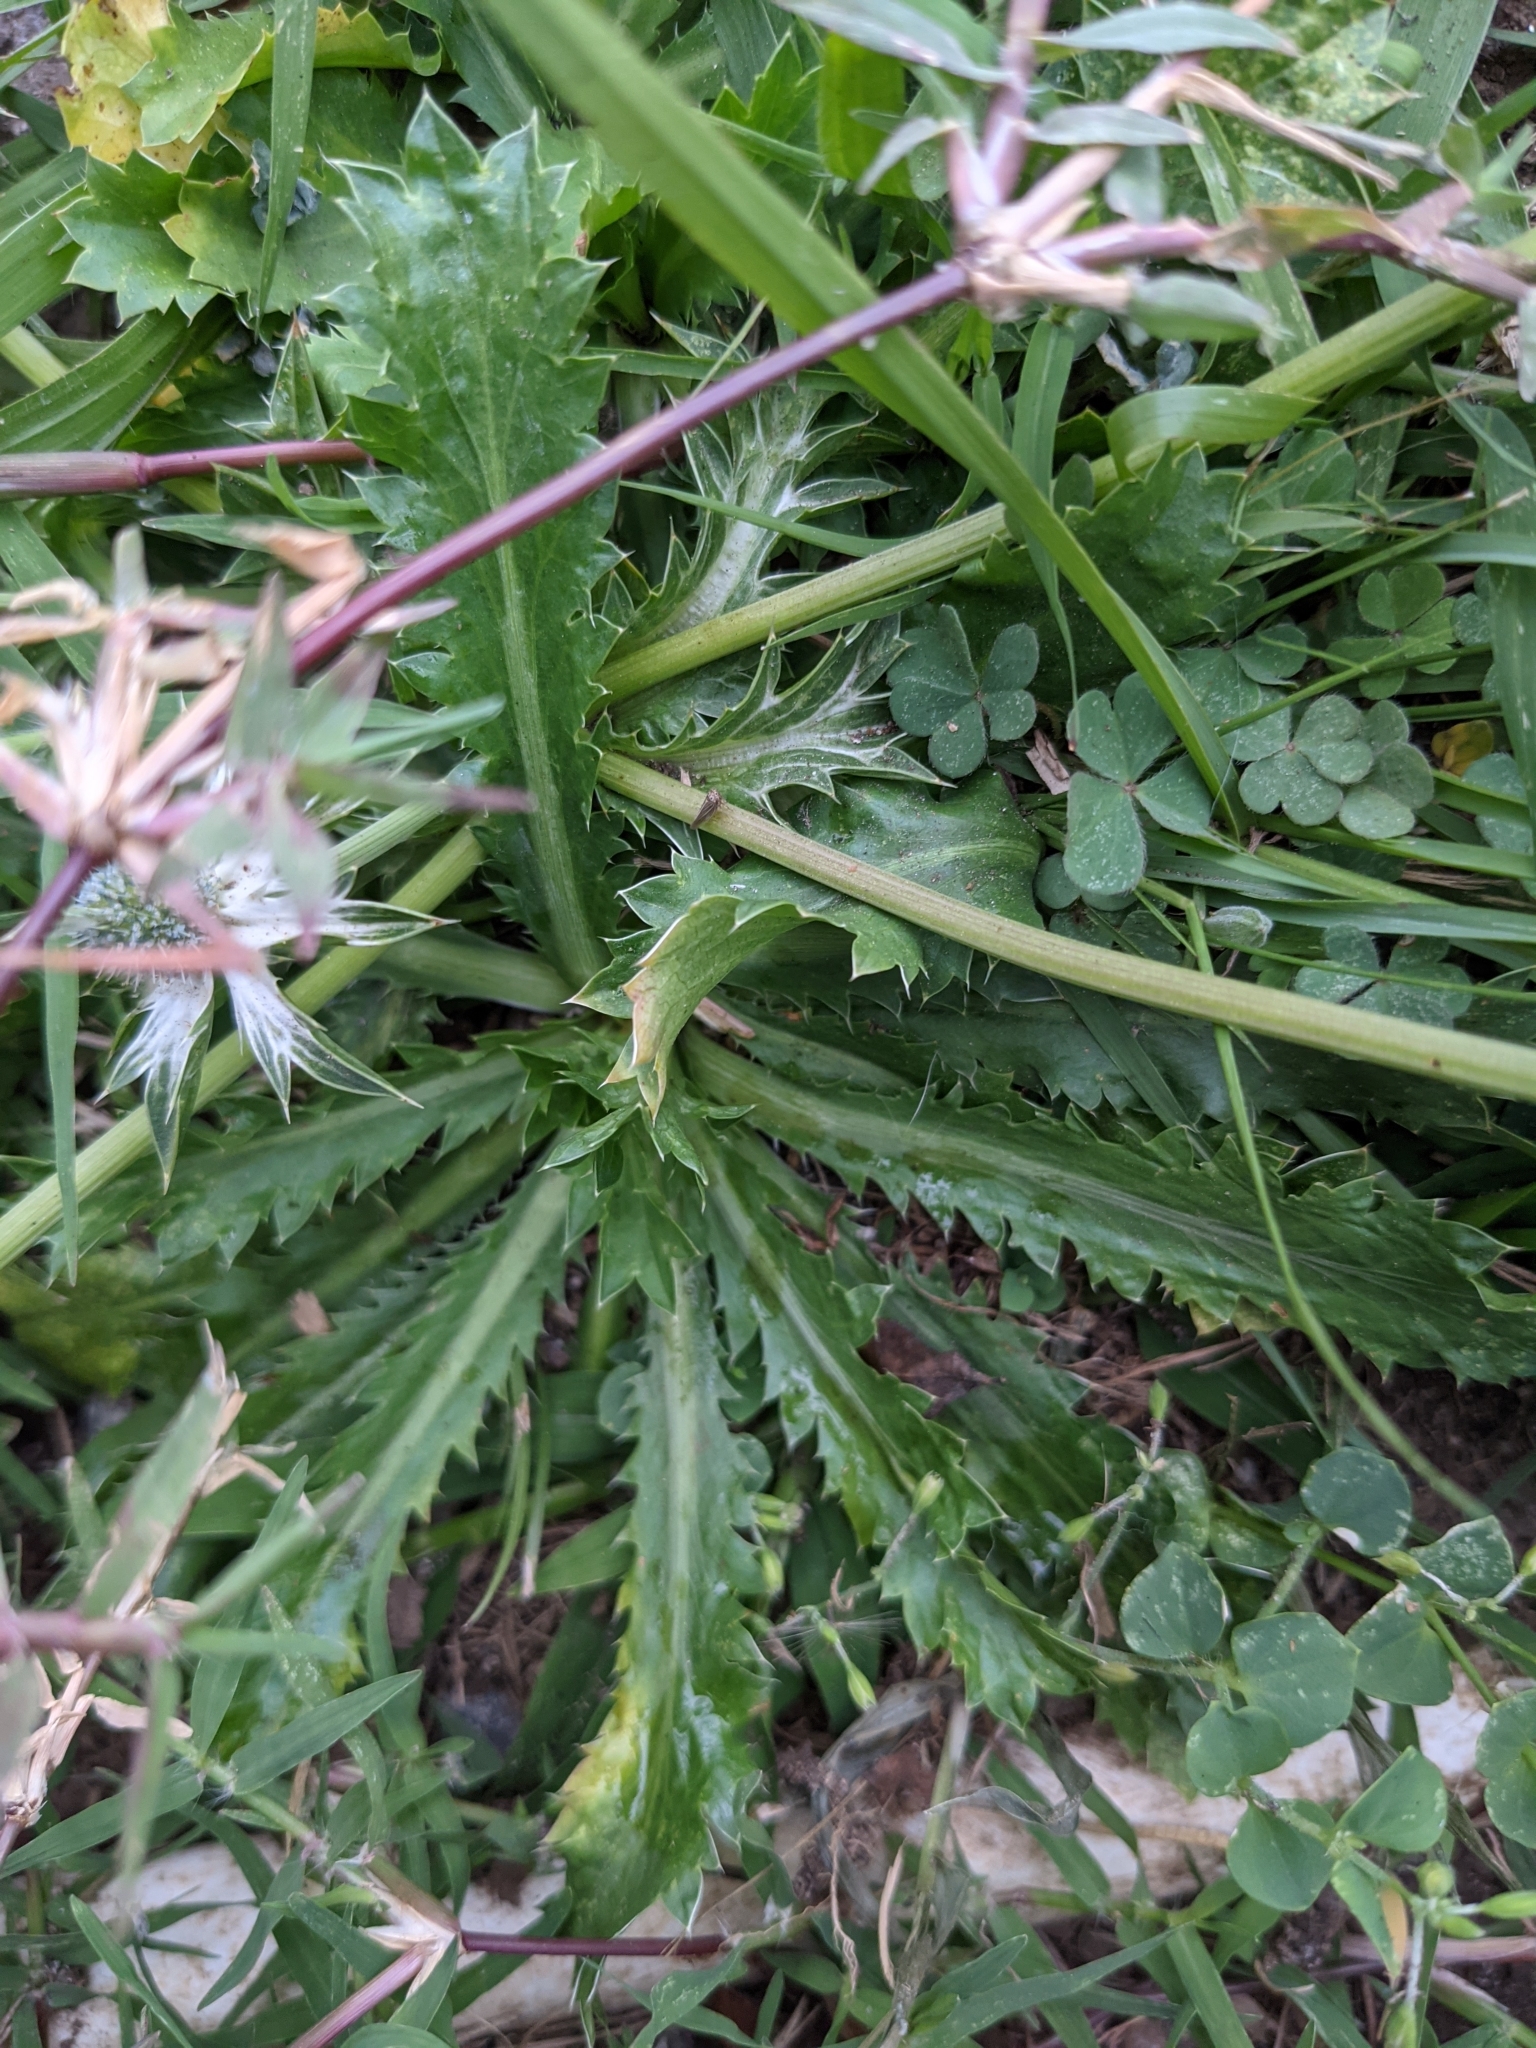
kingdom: Plantae
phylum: Tracheophyta
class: Magnoliopsida
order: Apiales
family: Apiaceae
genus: Eryngium
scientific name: Eryngium carlinae
